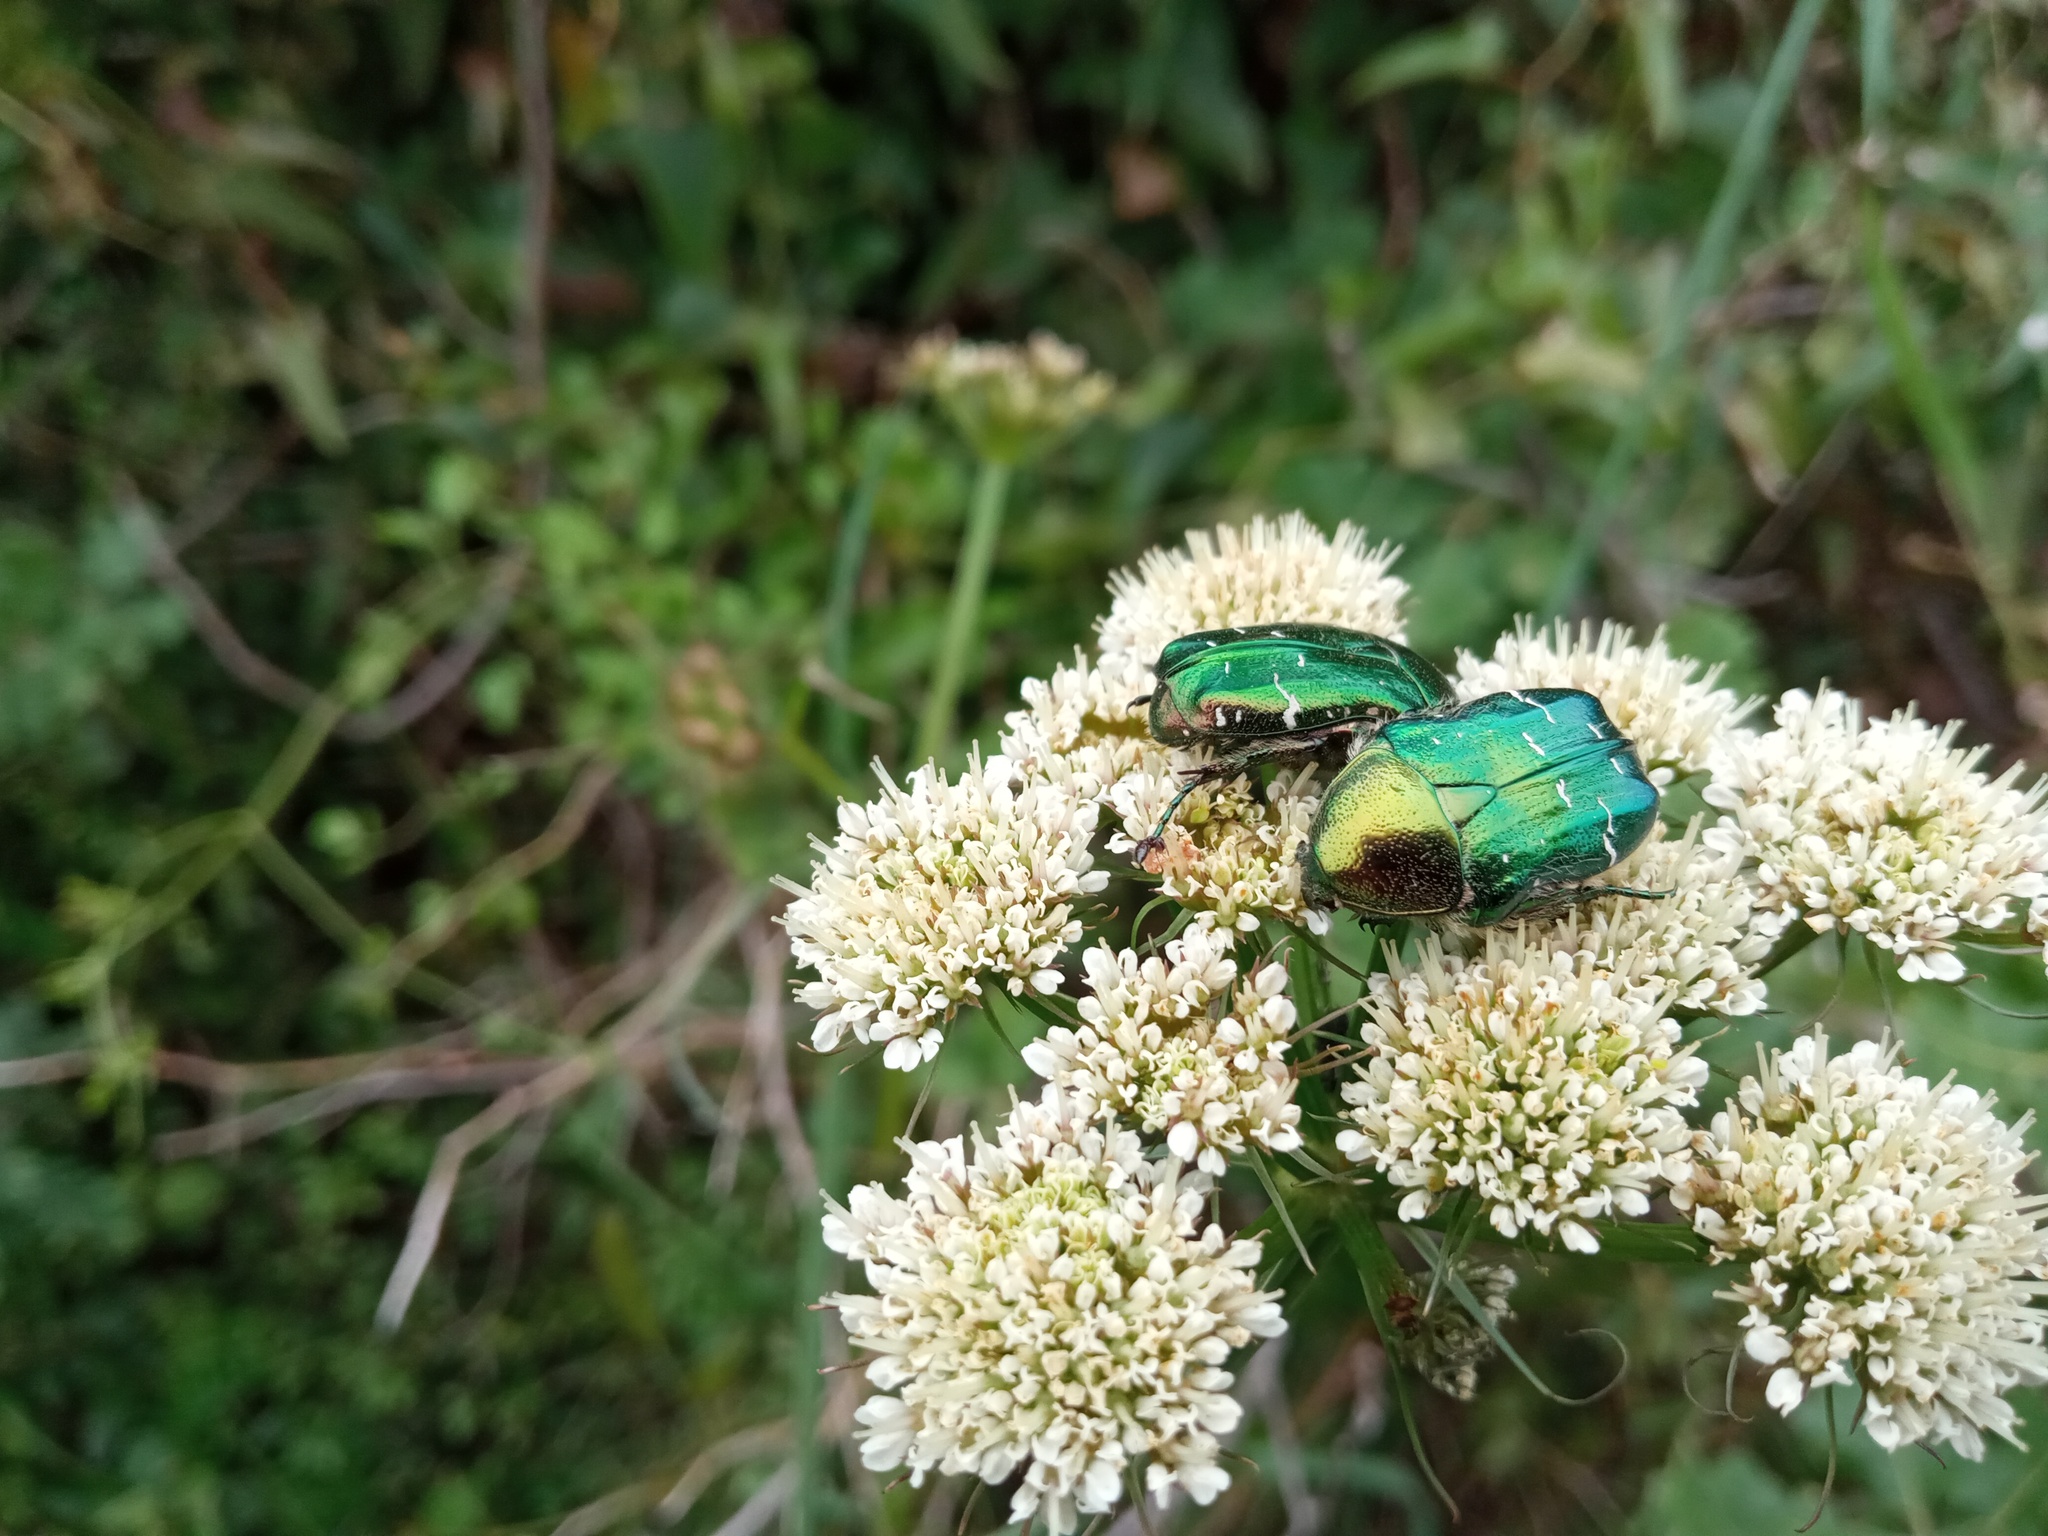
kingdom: Animalia
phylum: Arthropoda
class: Insecta
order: Coleoptera
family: Scarabaeidae
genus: Cetonia
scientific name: Cetonia aurata
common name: Rose chafer
